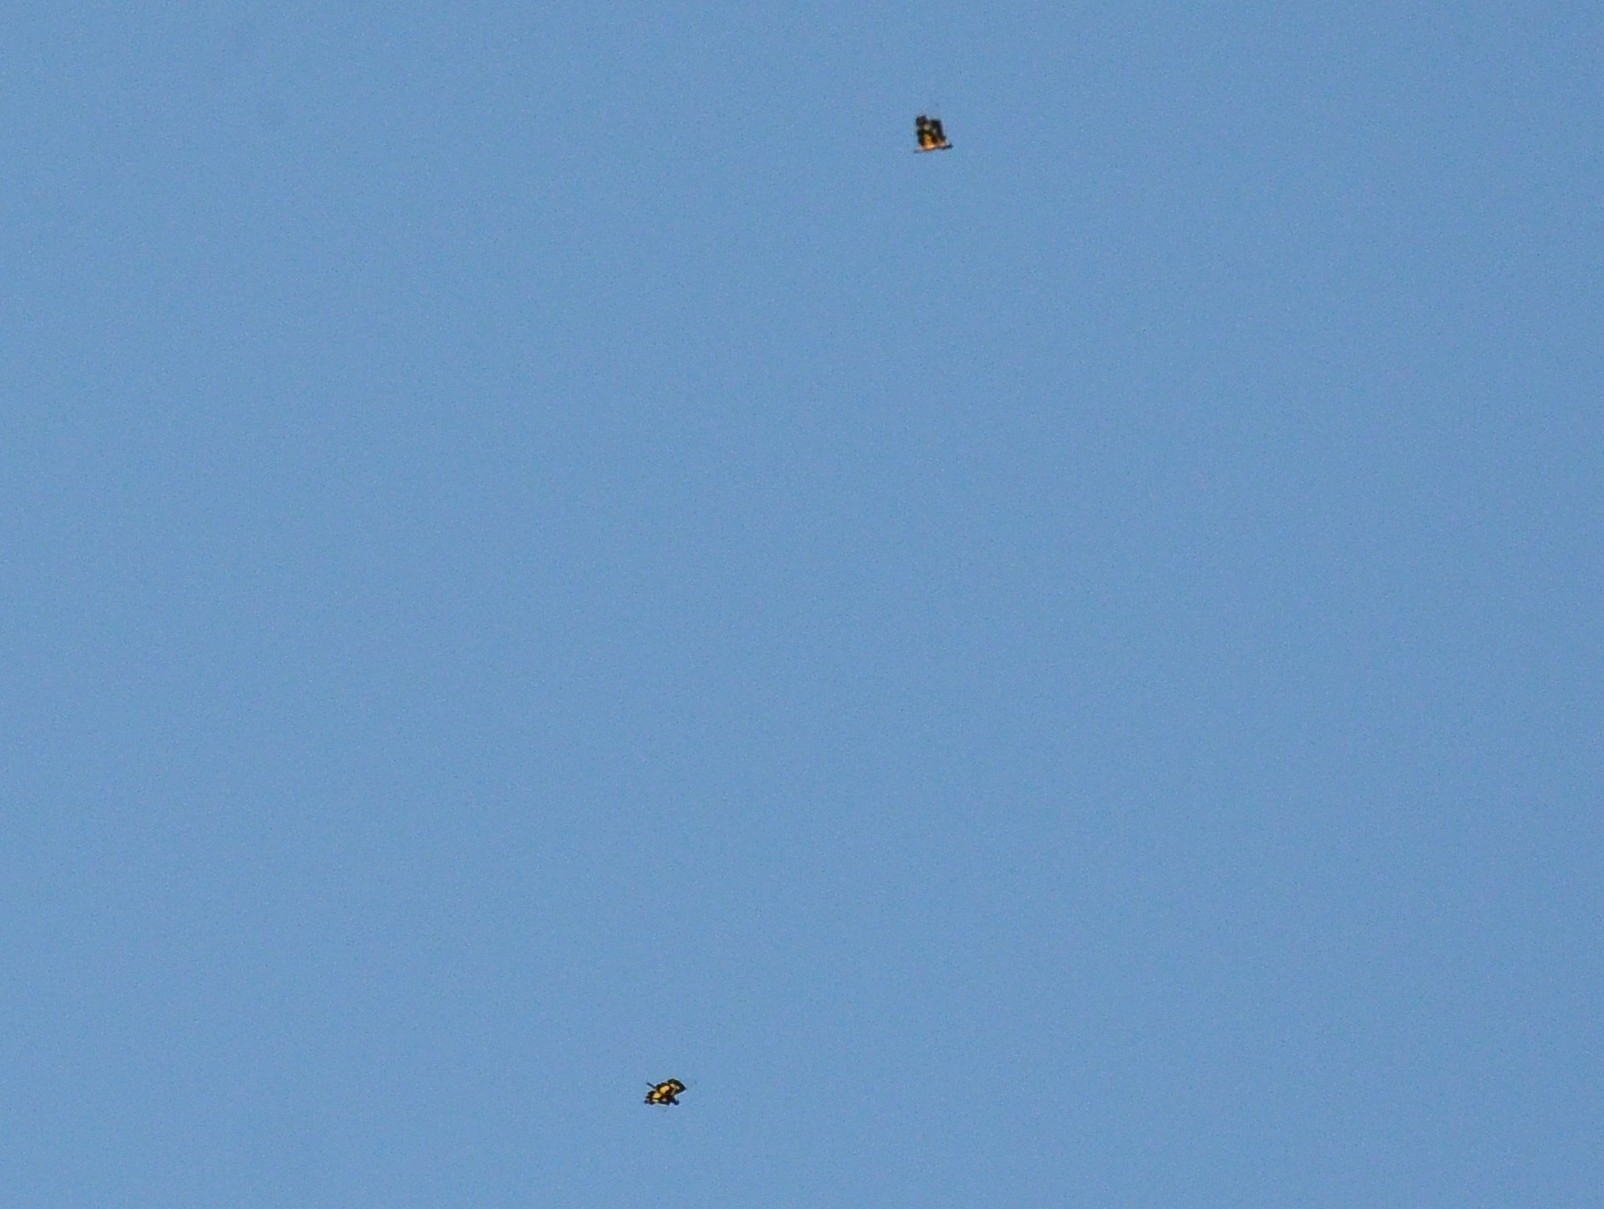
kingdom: Animalia
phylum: Arthropoda
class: Insecta
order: Odonata
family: Libellulidae
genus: Rhyothemis
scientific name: Rhyothemis variegata
